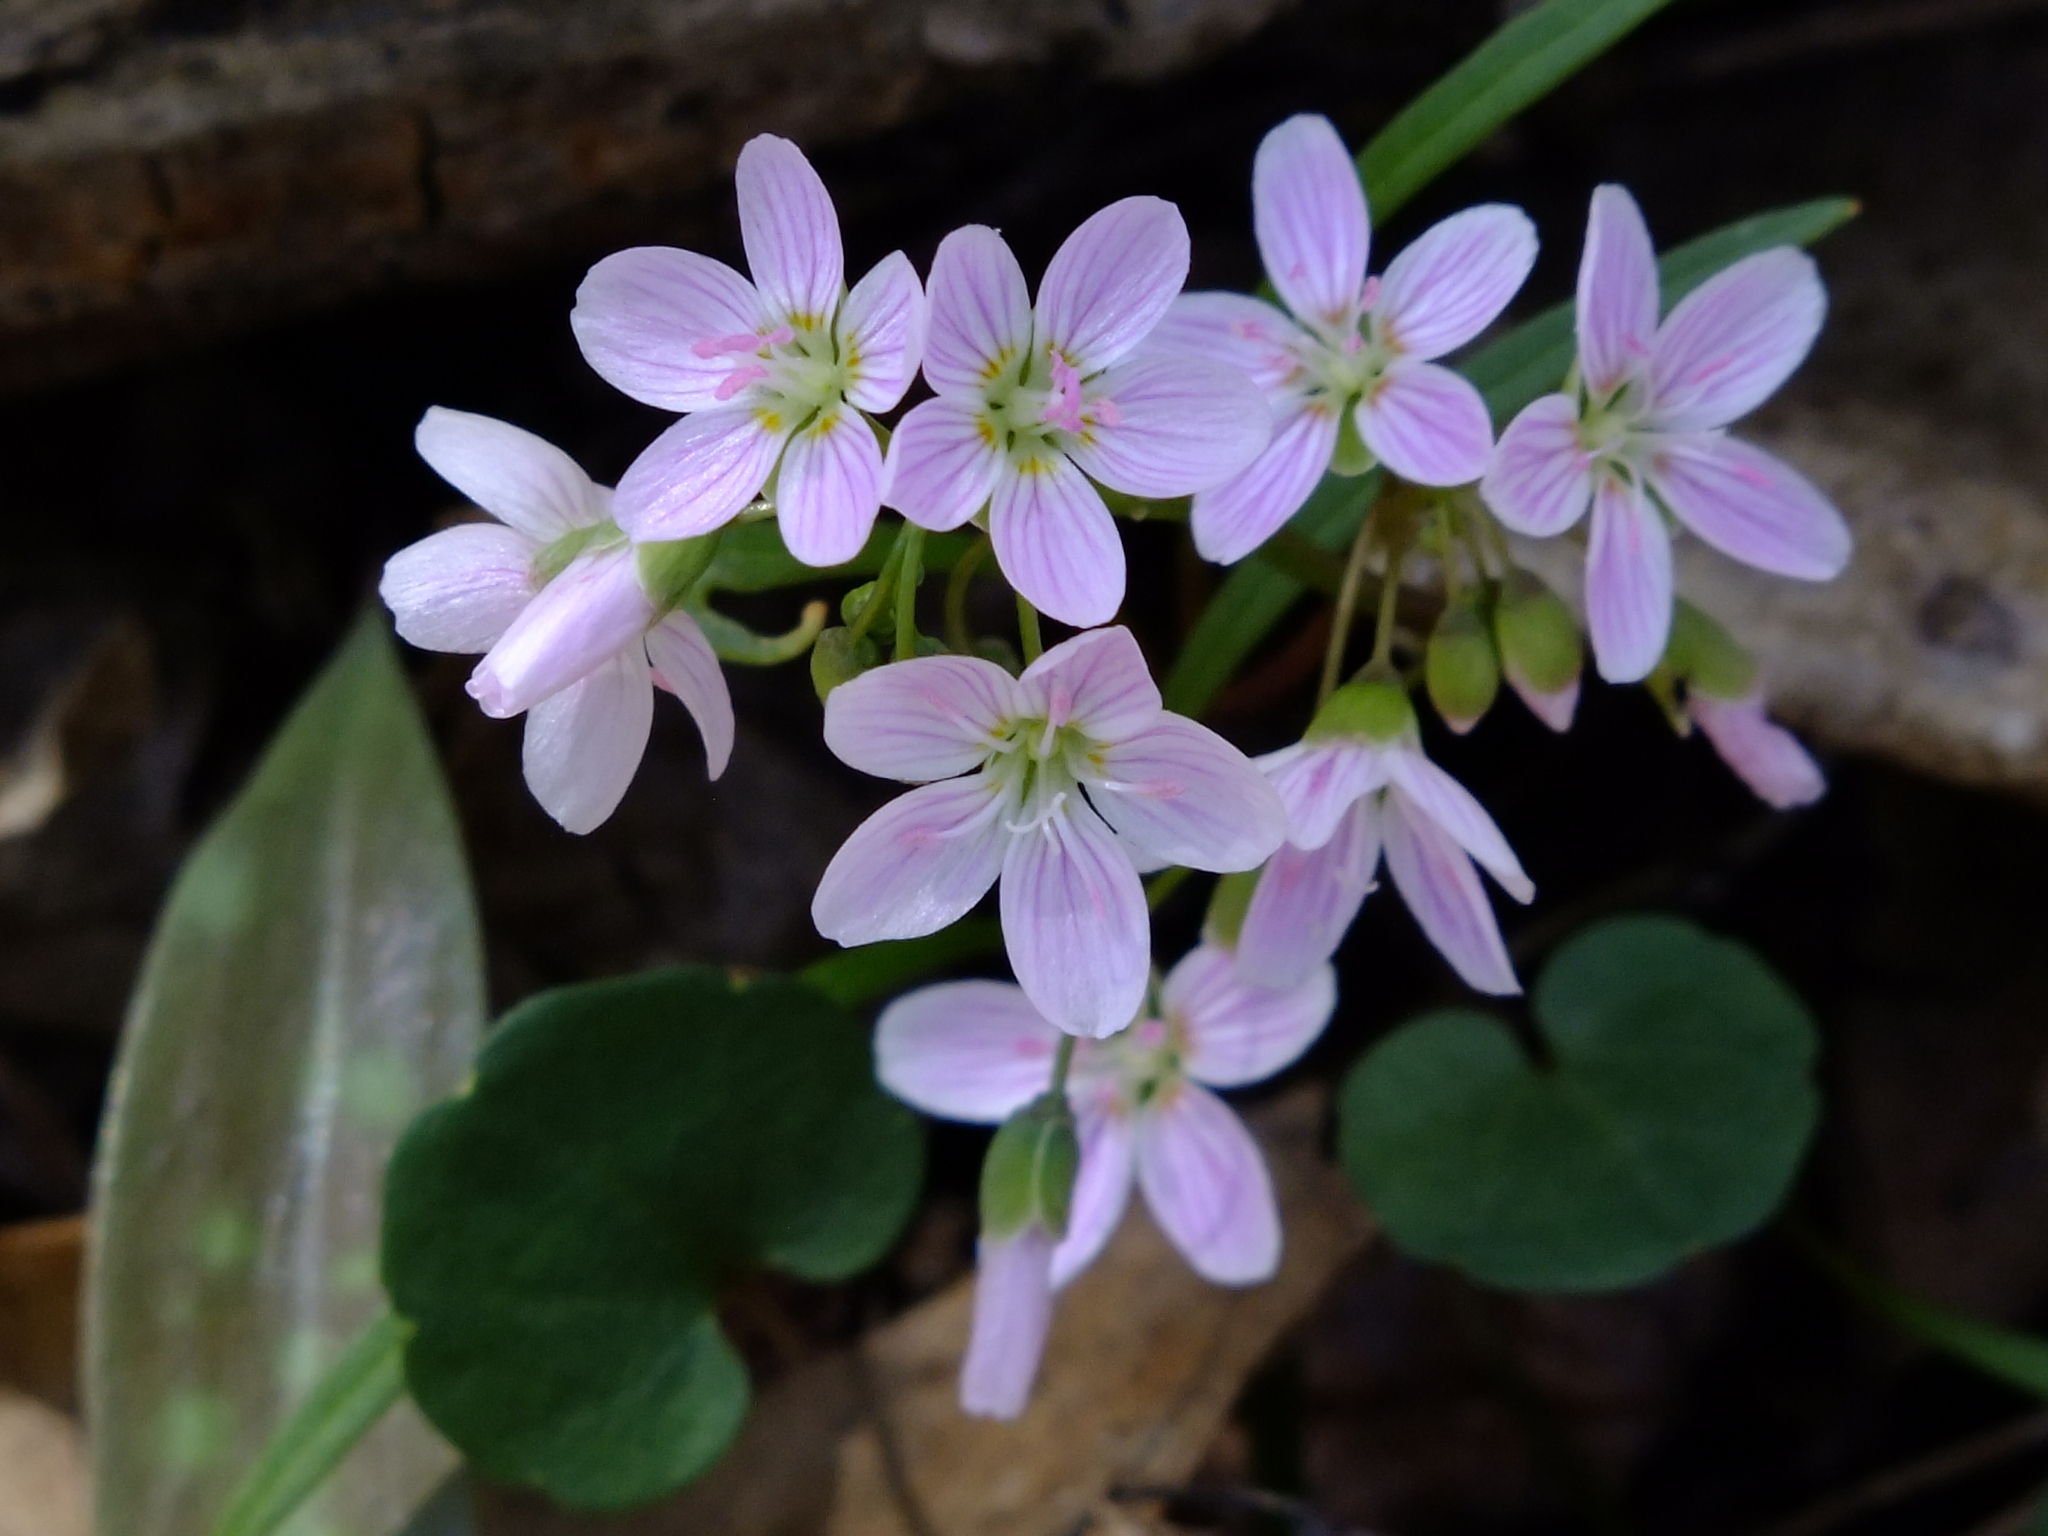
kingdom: Plantae
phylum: Tracheophyta
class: Magnoliopsida
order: Caryophyllales
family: Montiaceae
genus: Claytonia
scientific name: Claytonia virginica
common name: Virginia springbeauty
